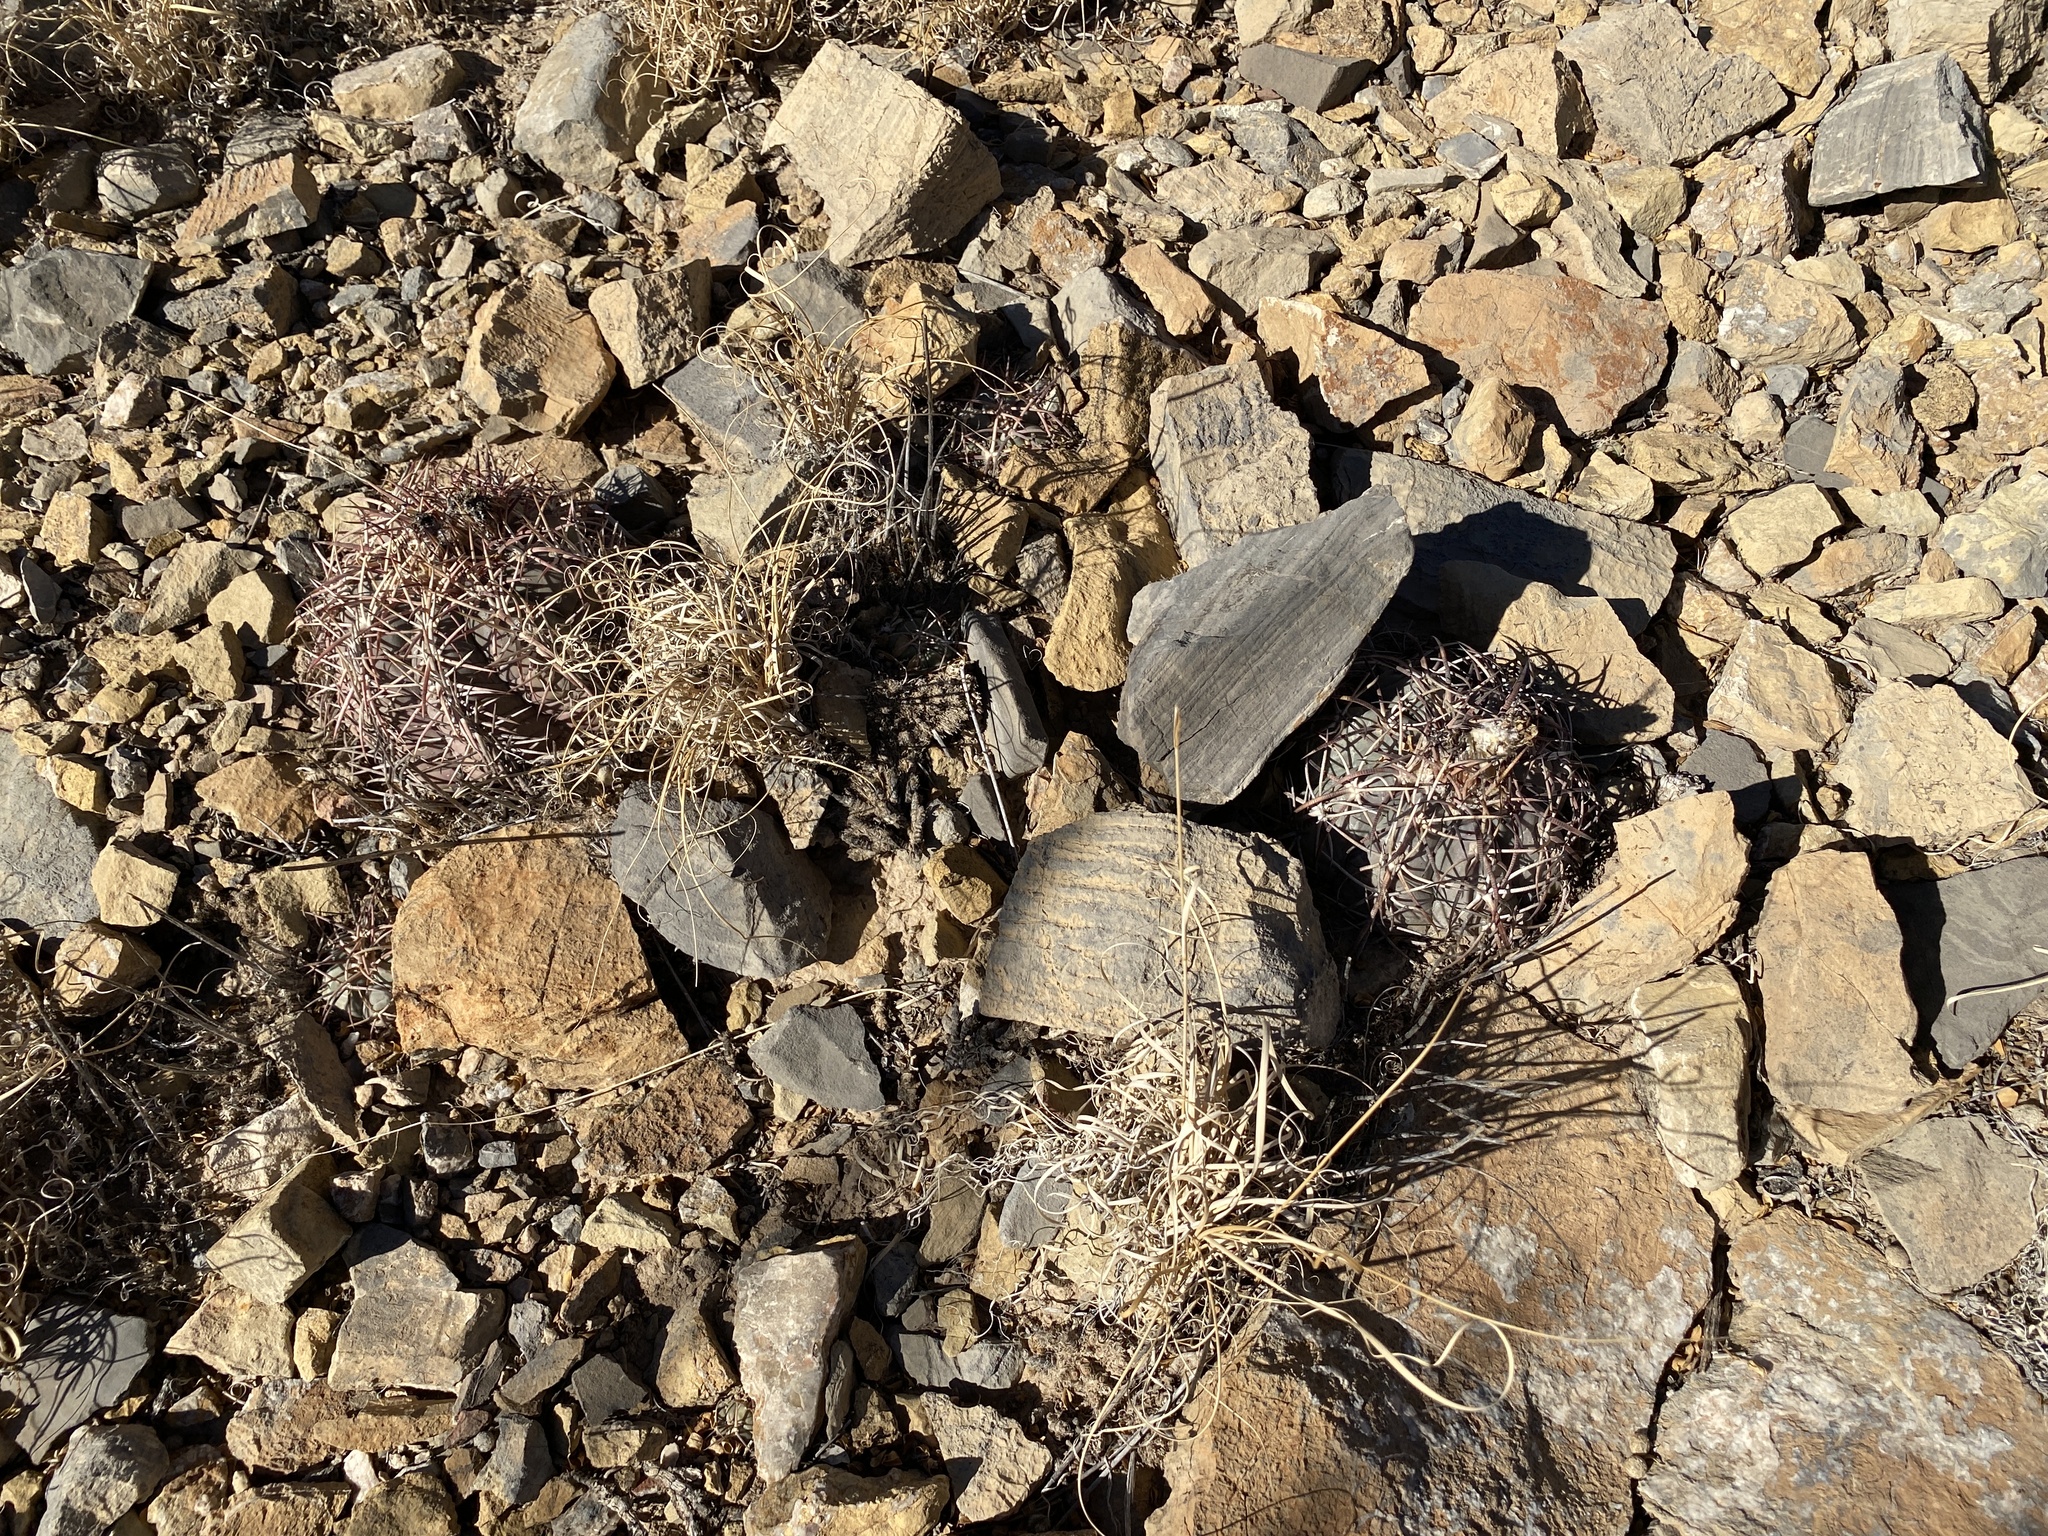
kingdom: Plantae
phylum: Tracheophyta
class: Magnoliopsida
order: Caryophyllales
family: Cactaceae
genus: Echinocactus
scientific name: Echinocactus horizonthalonius
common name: Devilshead
